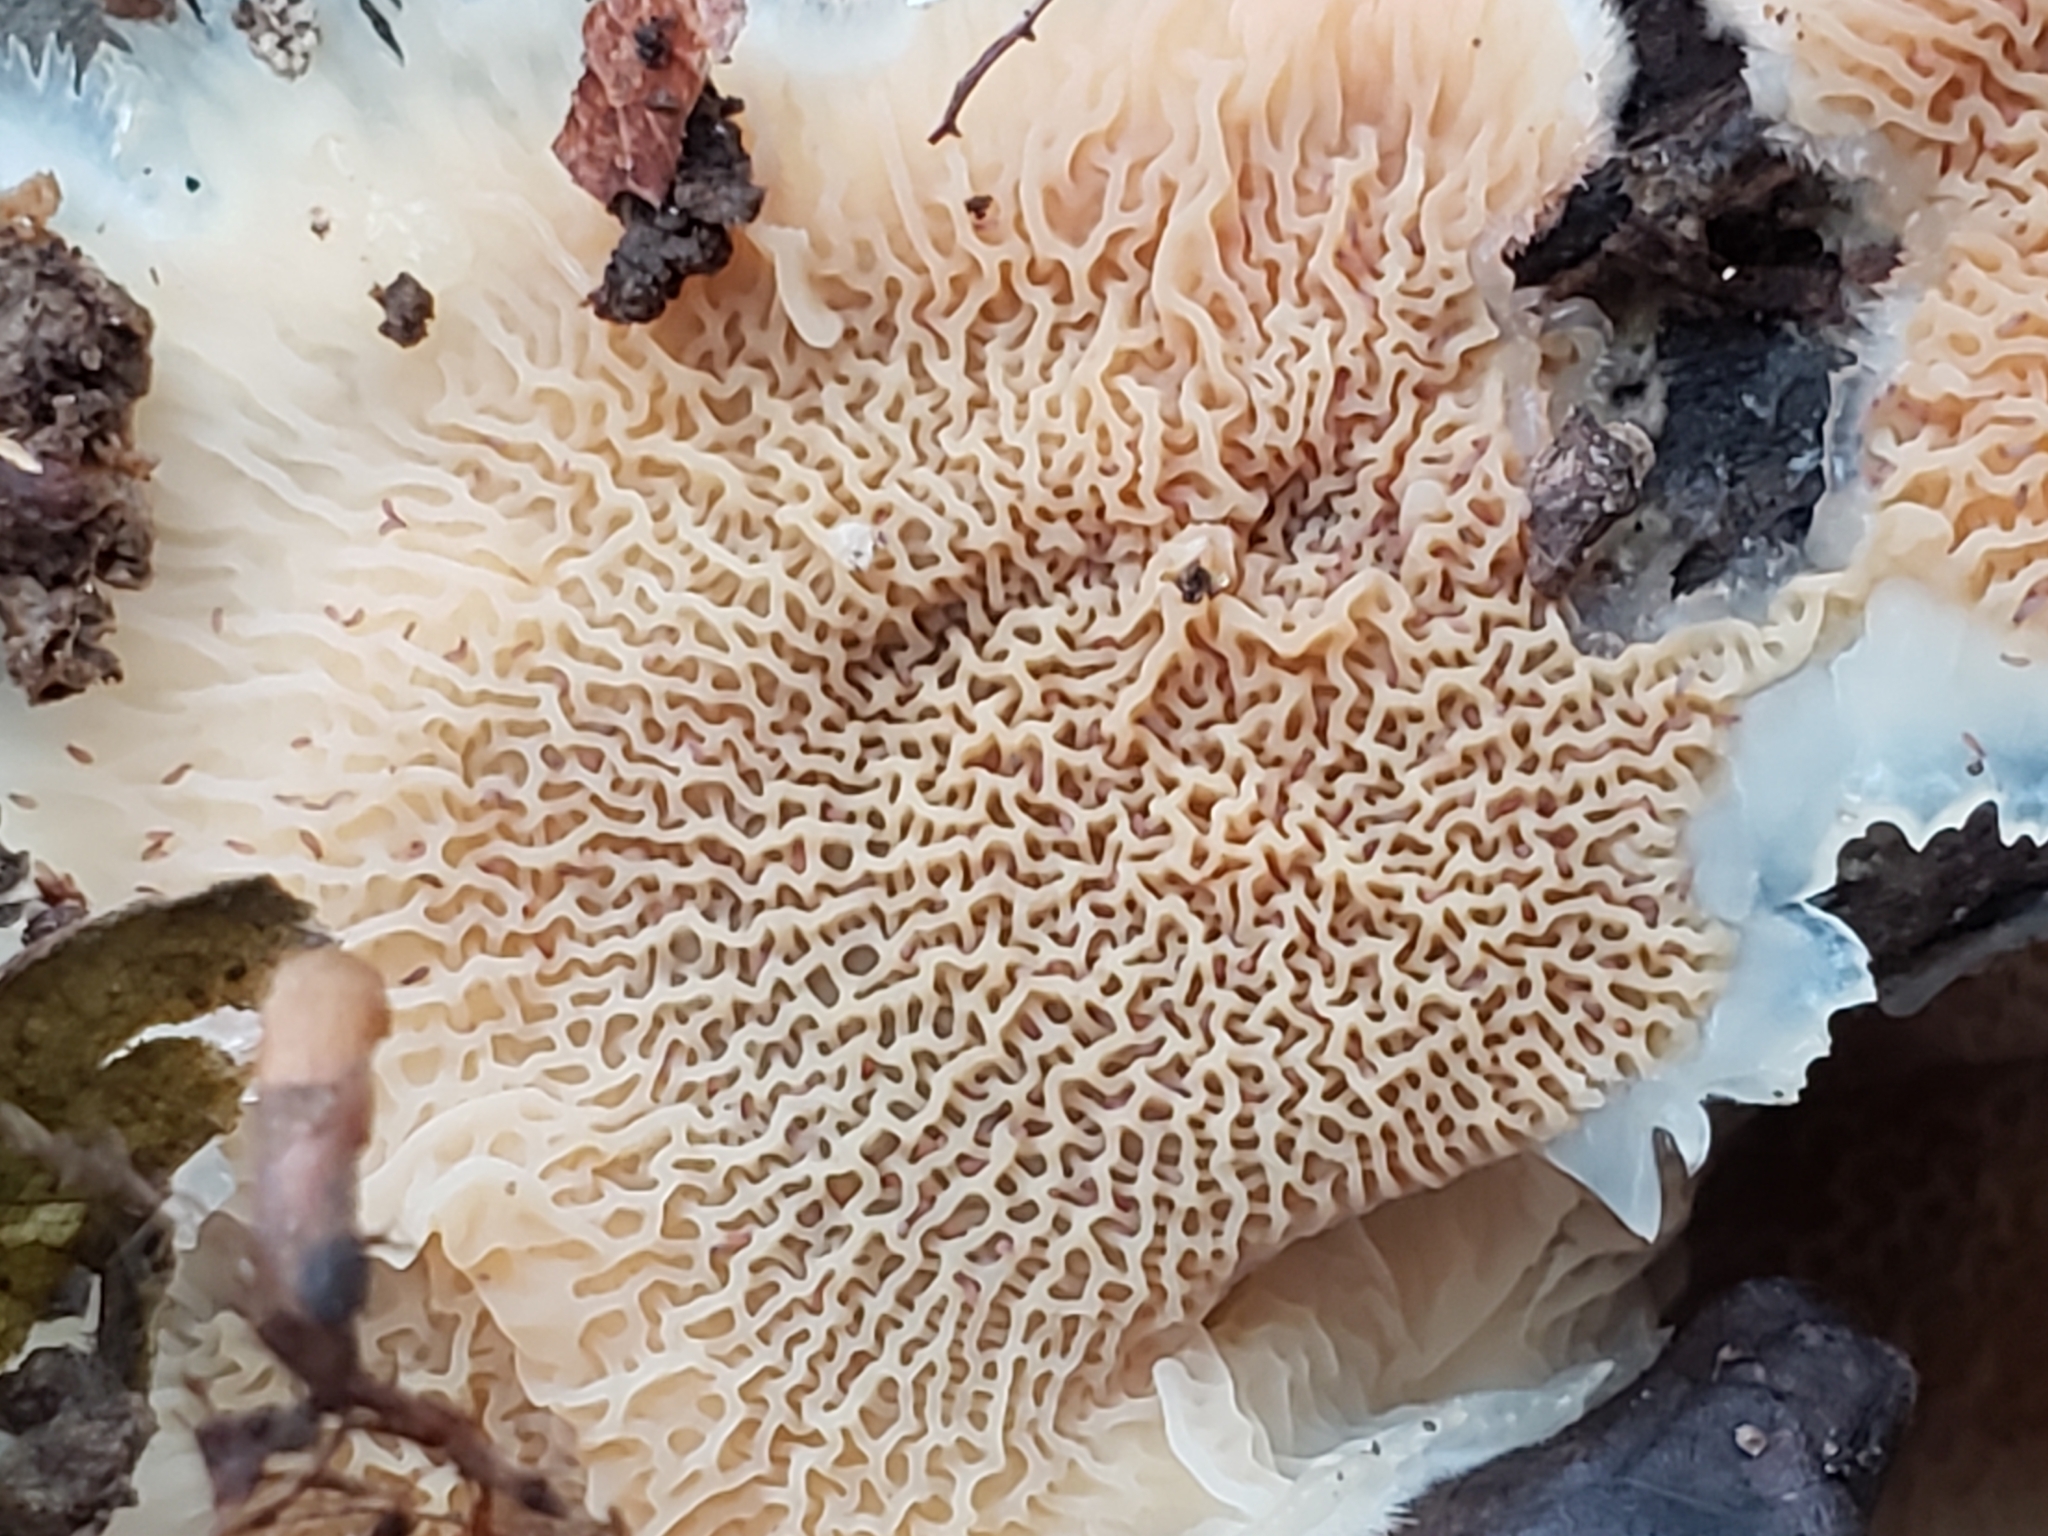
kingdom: Fungi
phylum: Basidiomycota
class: Agaricomycetes
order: Polyporales
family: Meruliaceae
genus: Phlebia
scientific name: Phlebia tremellosa
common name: Jelly rot
